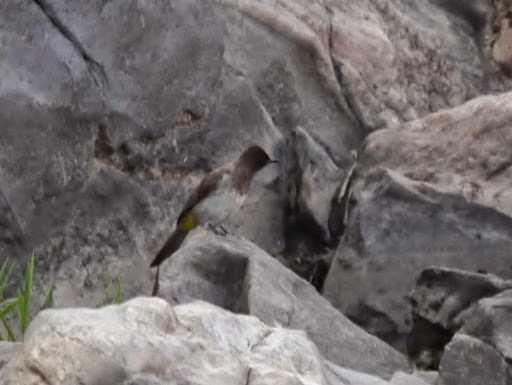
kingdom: Animalia
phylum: Chordata
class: Aves
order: Passeriformes
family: Pycnonotidae
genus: Pycnonotus
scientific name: Pycnonotus barbatus
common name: Common bulbul
